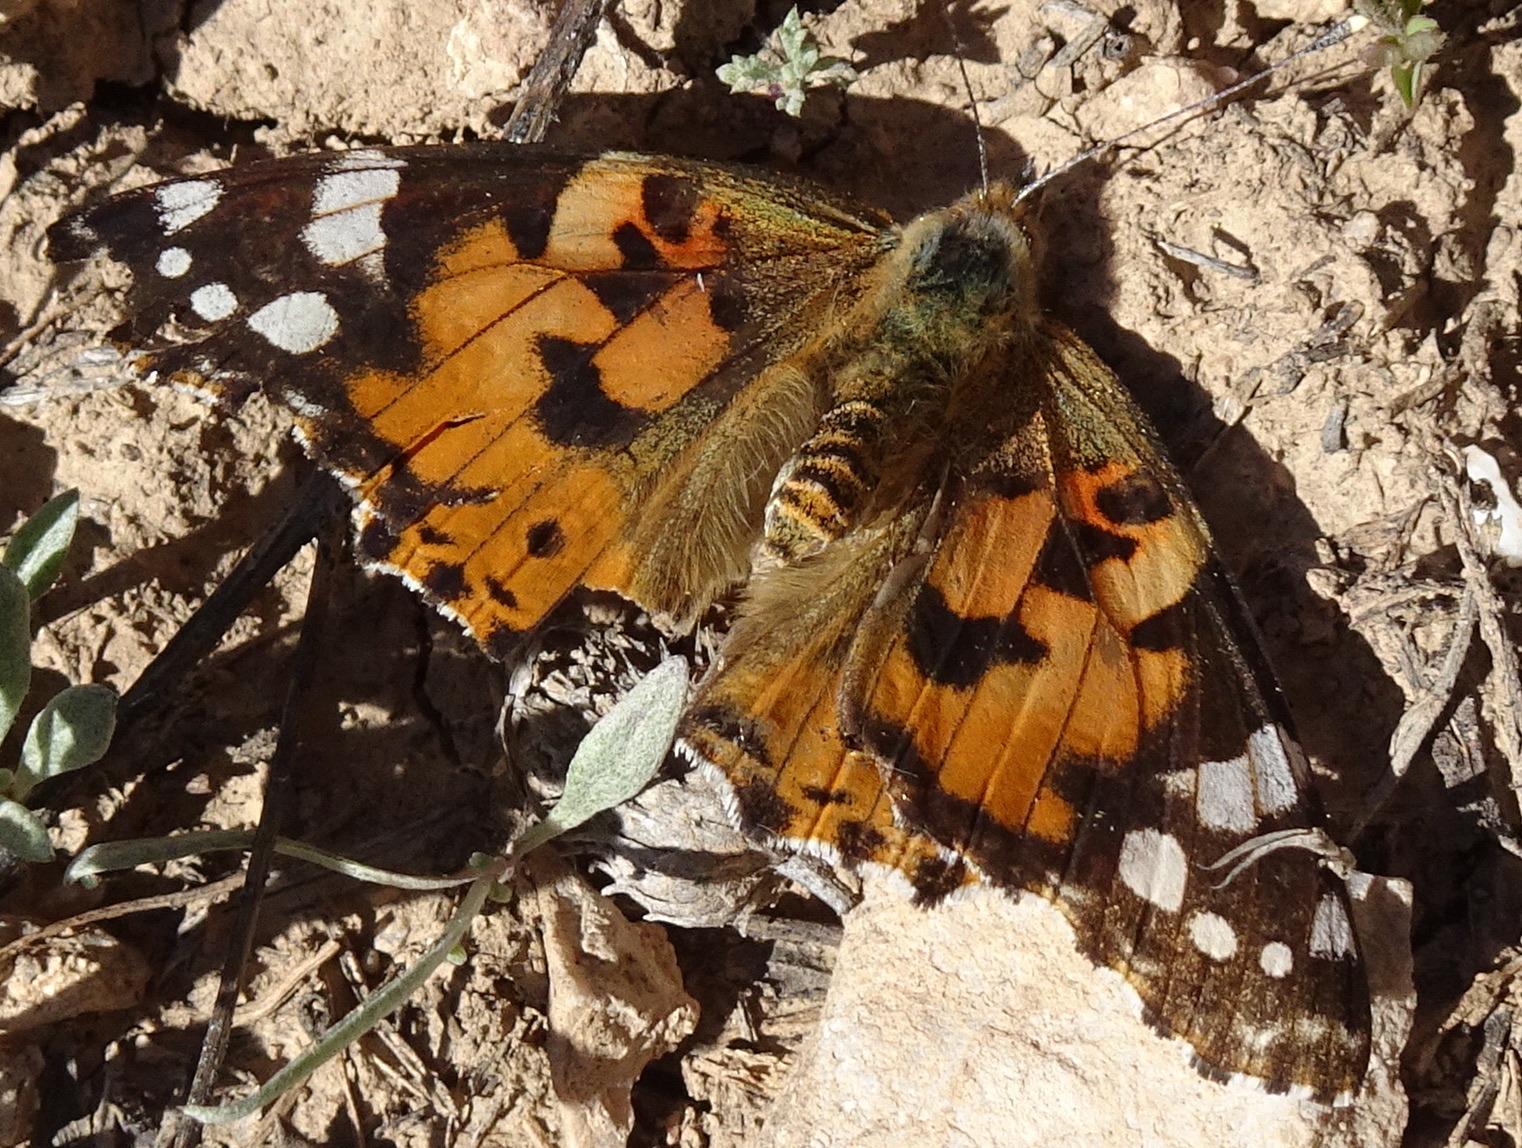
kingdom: Animalia
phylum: Arthropoda
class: Insecta
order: Lepidoptera
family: Nymphalidae
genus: Vanessa
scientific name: Vanessa cardui
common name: Painted lady
